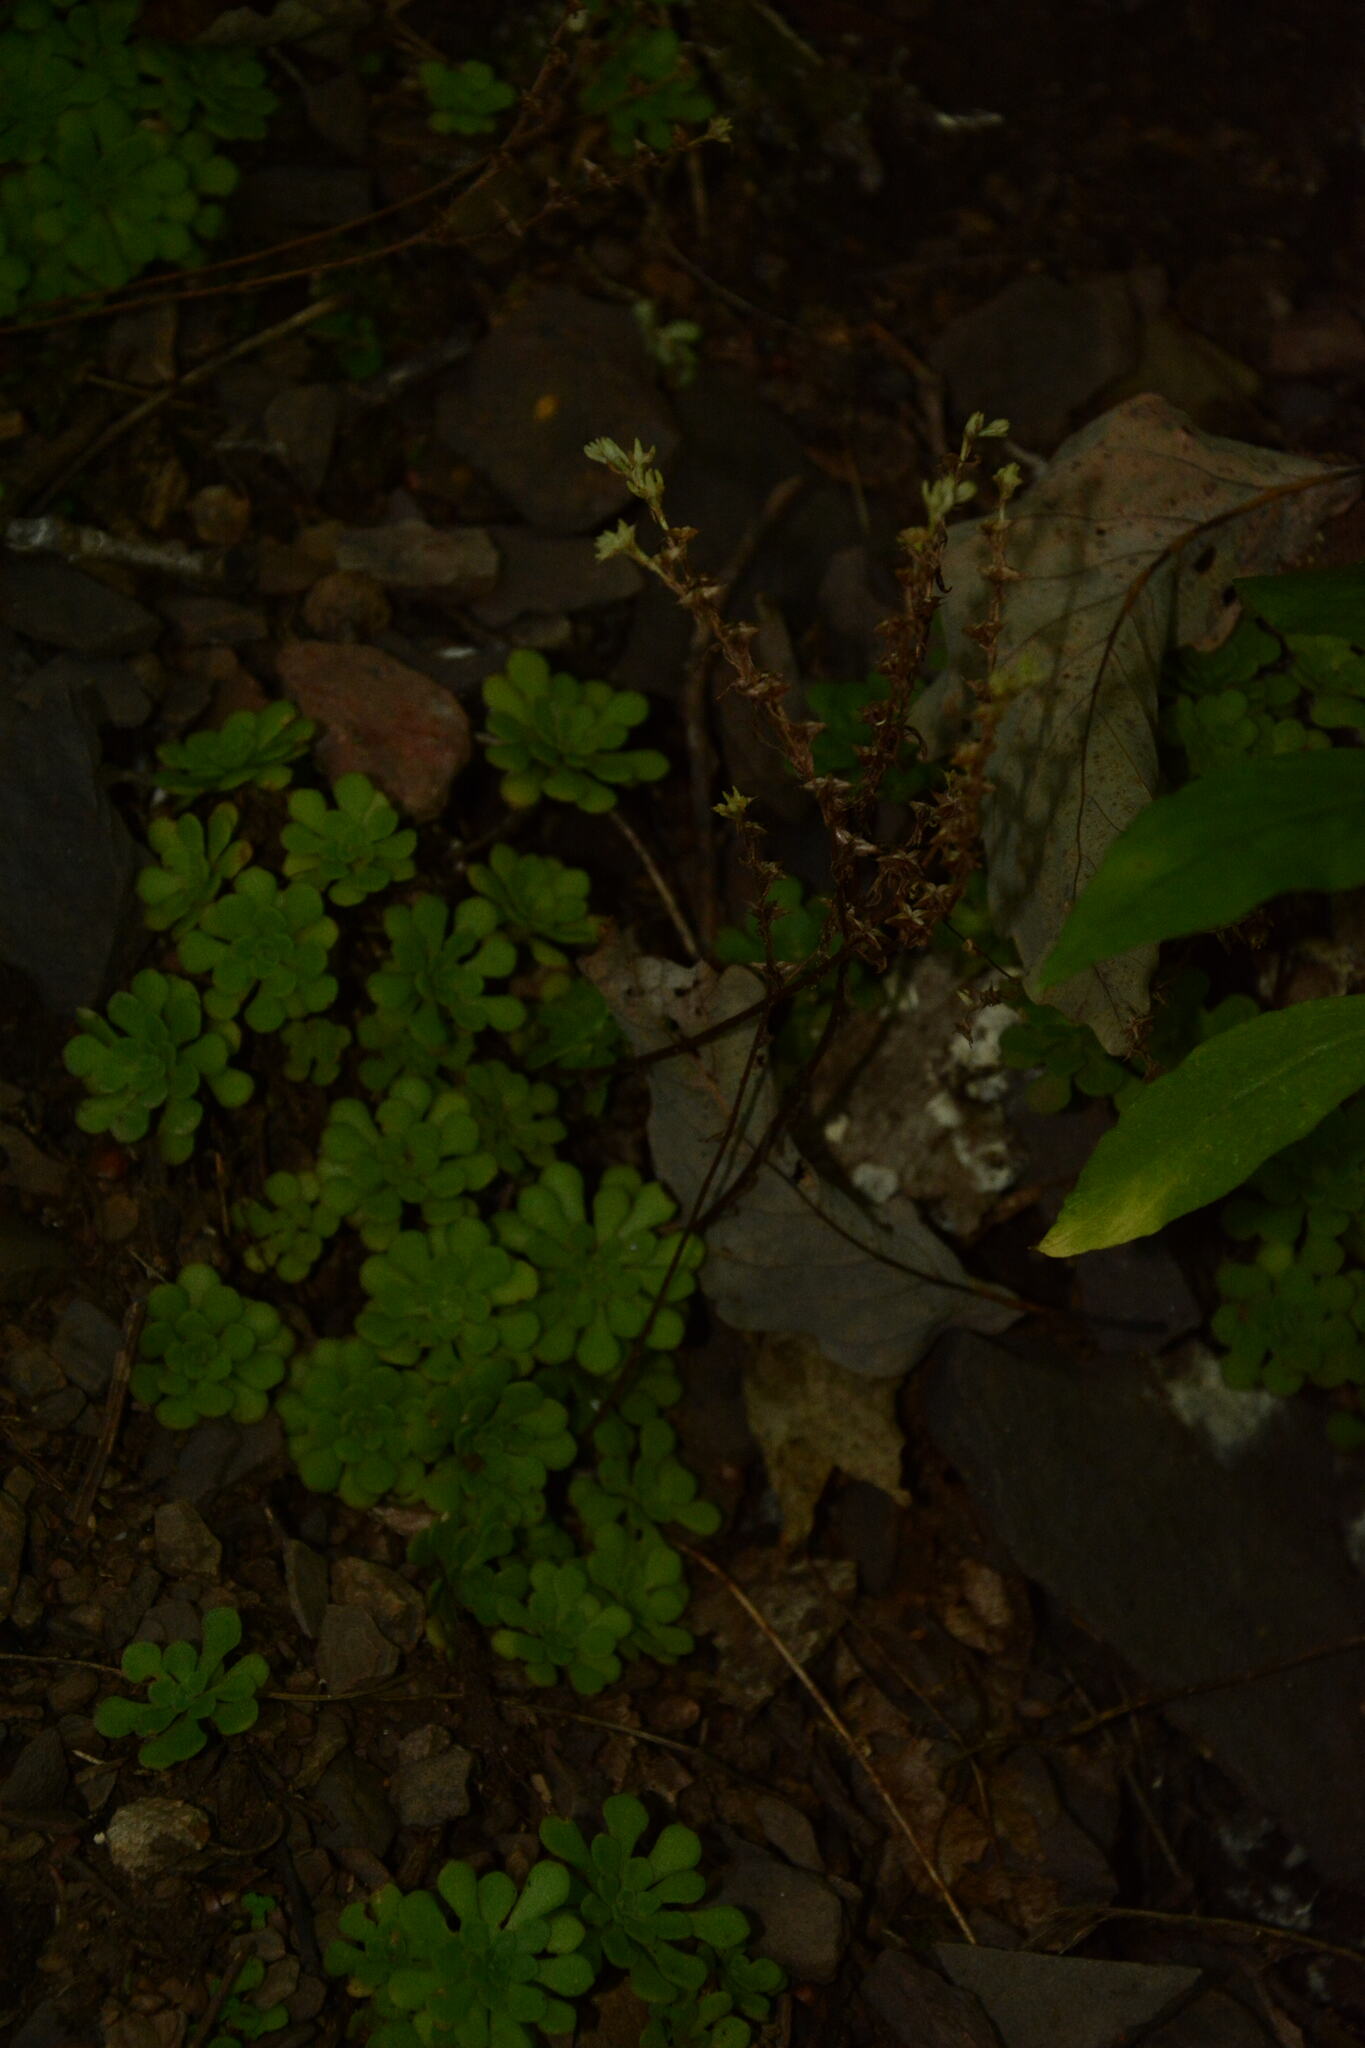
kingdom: Plantae
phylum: Tracheophyta
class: Magnoliopsida
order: Saxifragales
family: Crassulaceae
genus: Sedum
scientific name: Sedum glaucophyllum
